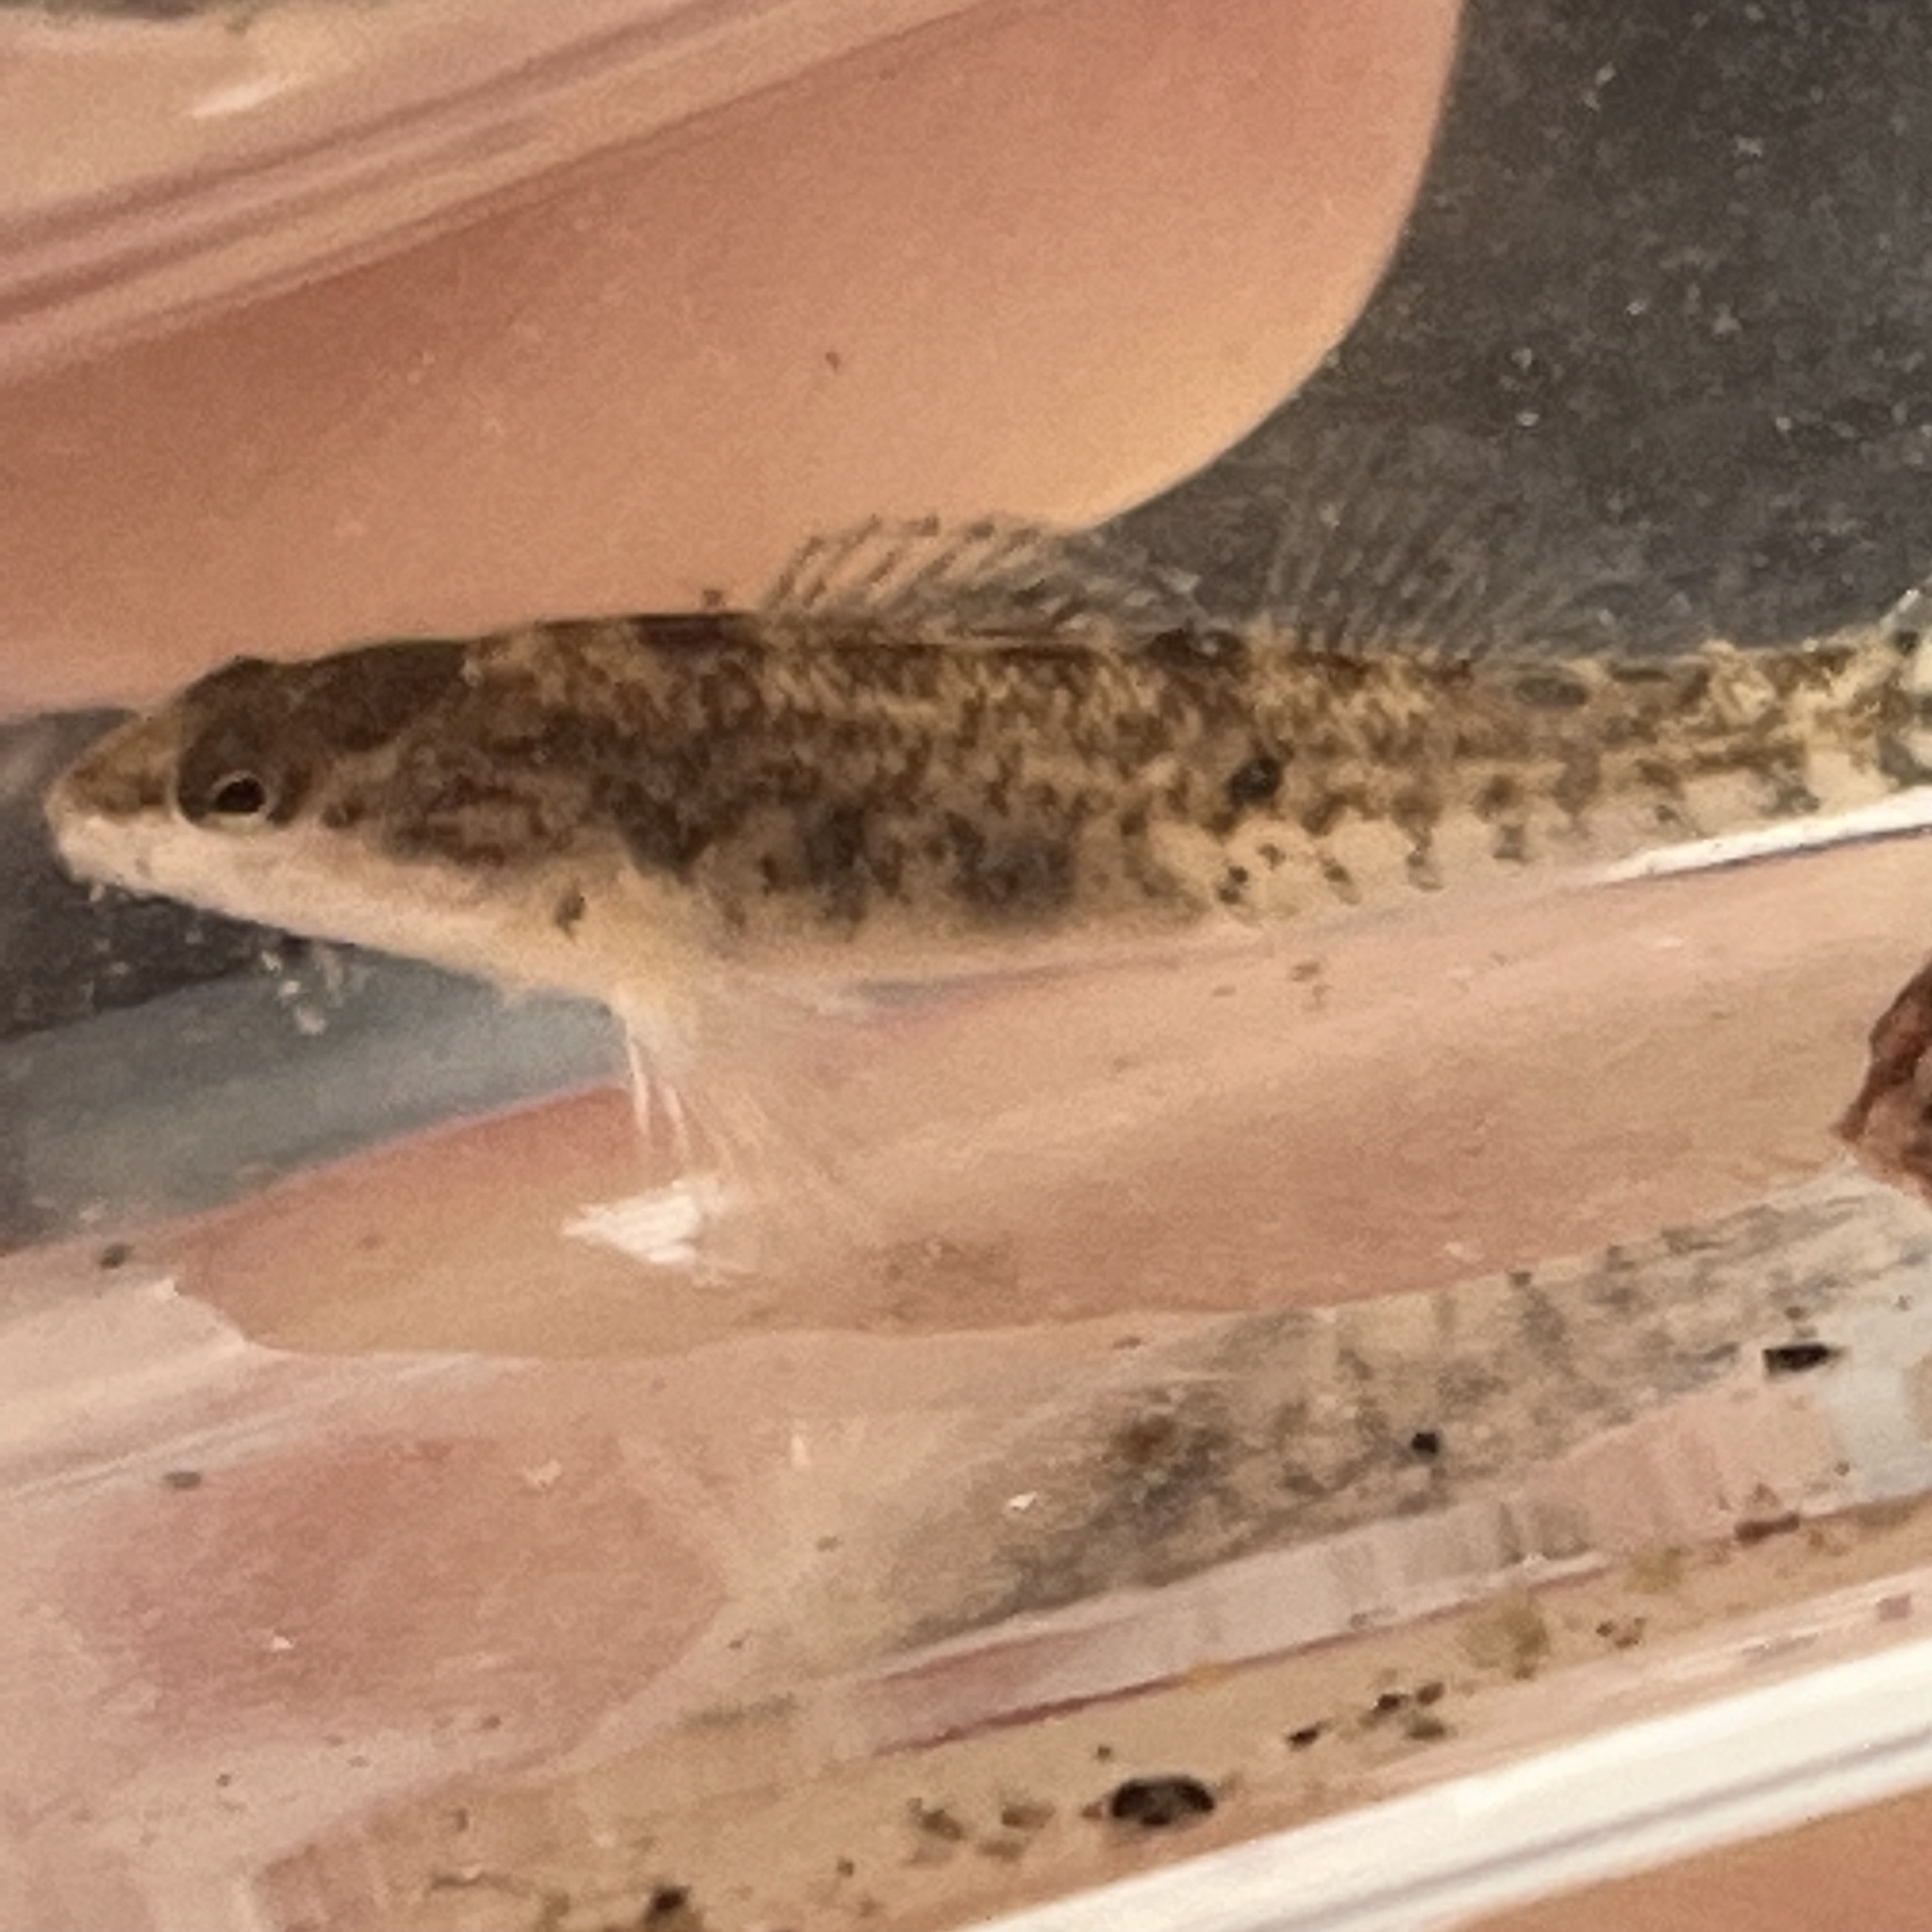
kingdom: Animalia
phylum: Chordata
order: Perciformes
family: Percidae
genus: Etheostoma
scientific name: Etheostoma caeruleum
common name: Rainbow darter
